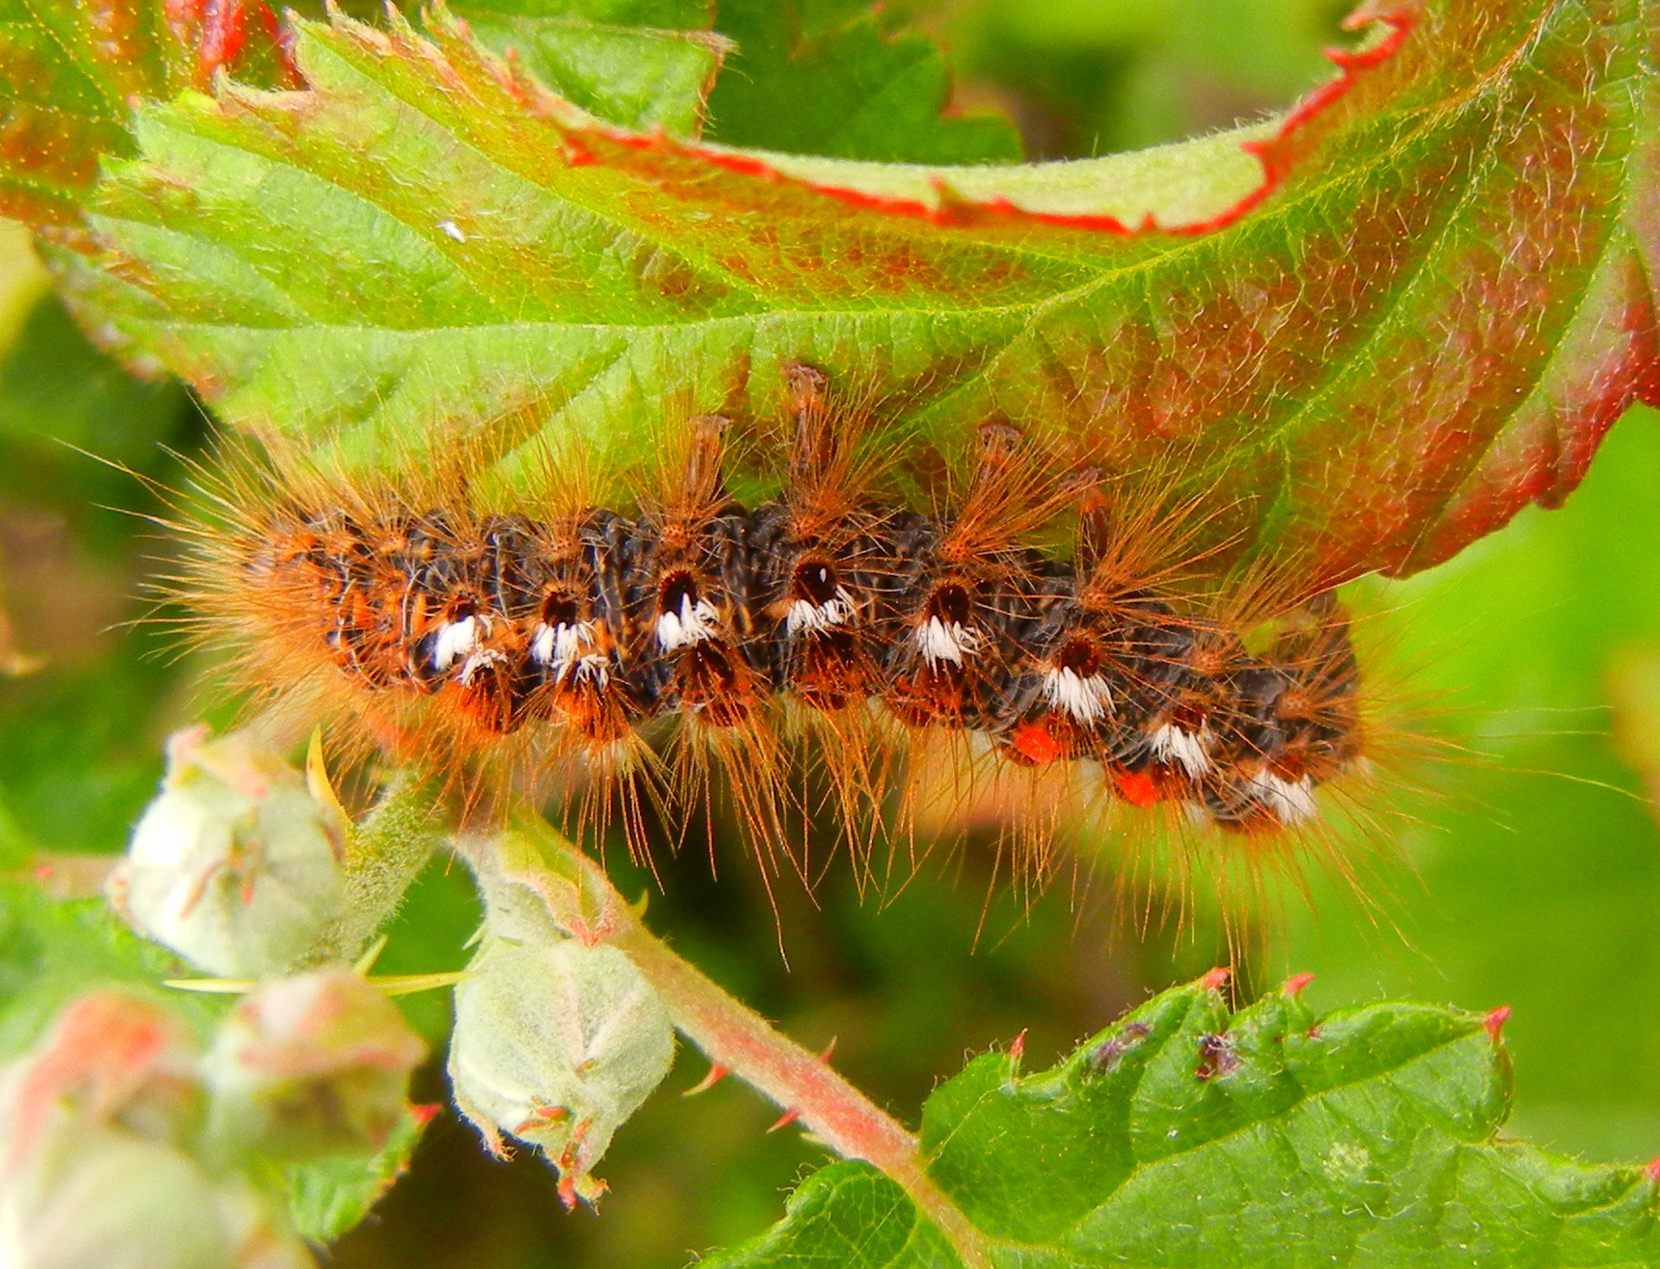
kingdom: Animalia
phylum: Arthropoda
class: Insecta
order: Lepidoptera
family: Erebidae
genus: Euproctis
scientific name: Euproctis chrysorrhoea
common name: Brown-tail
